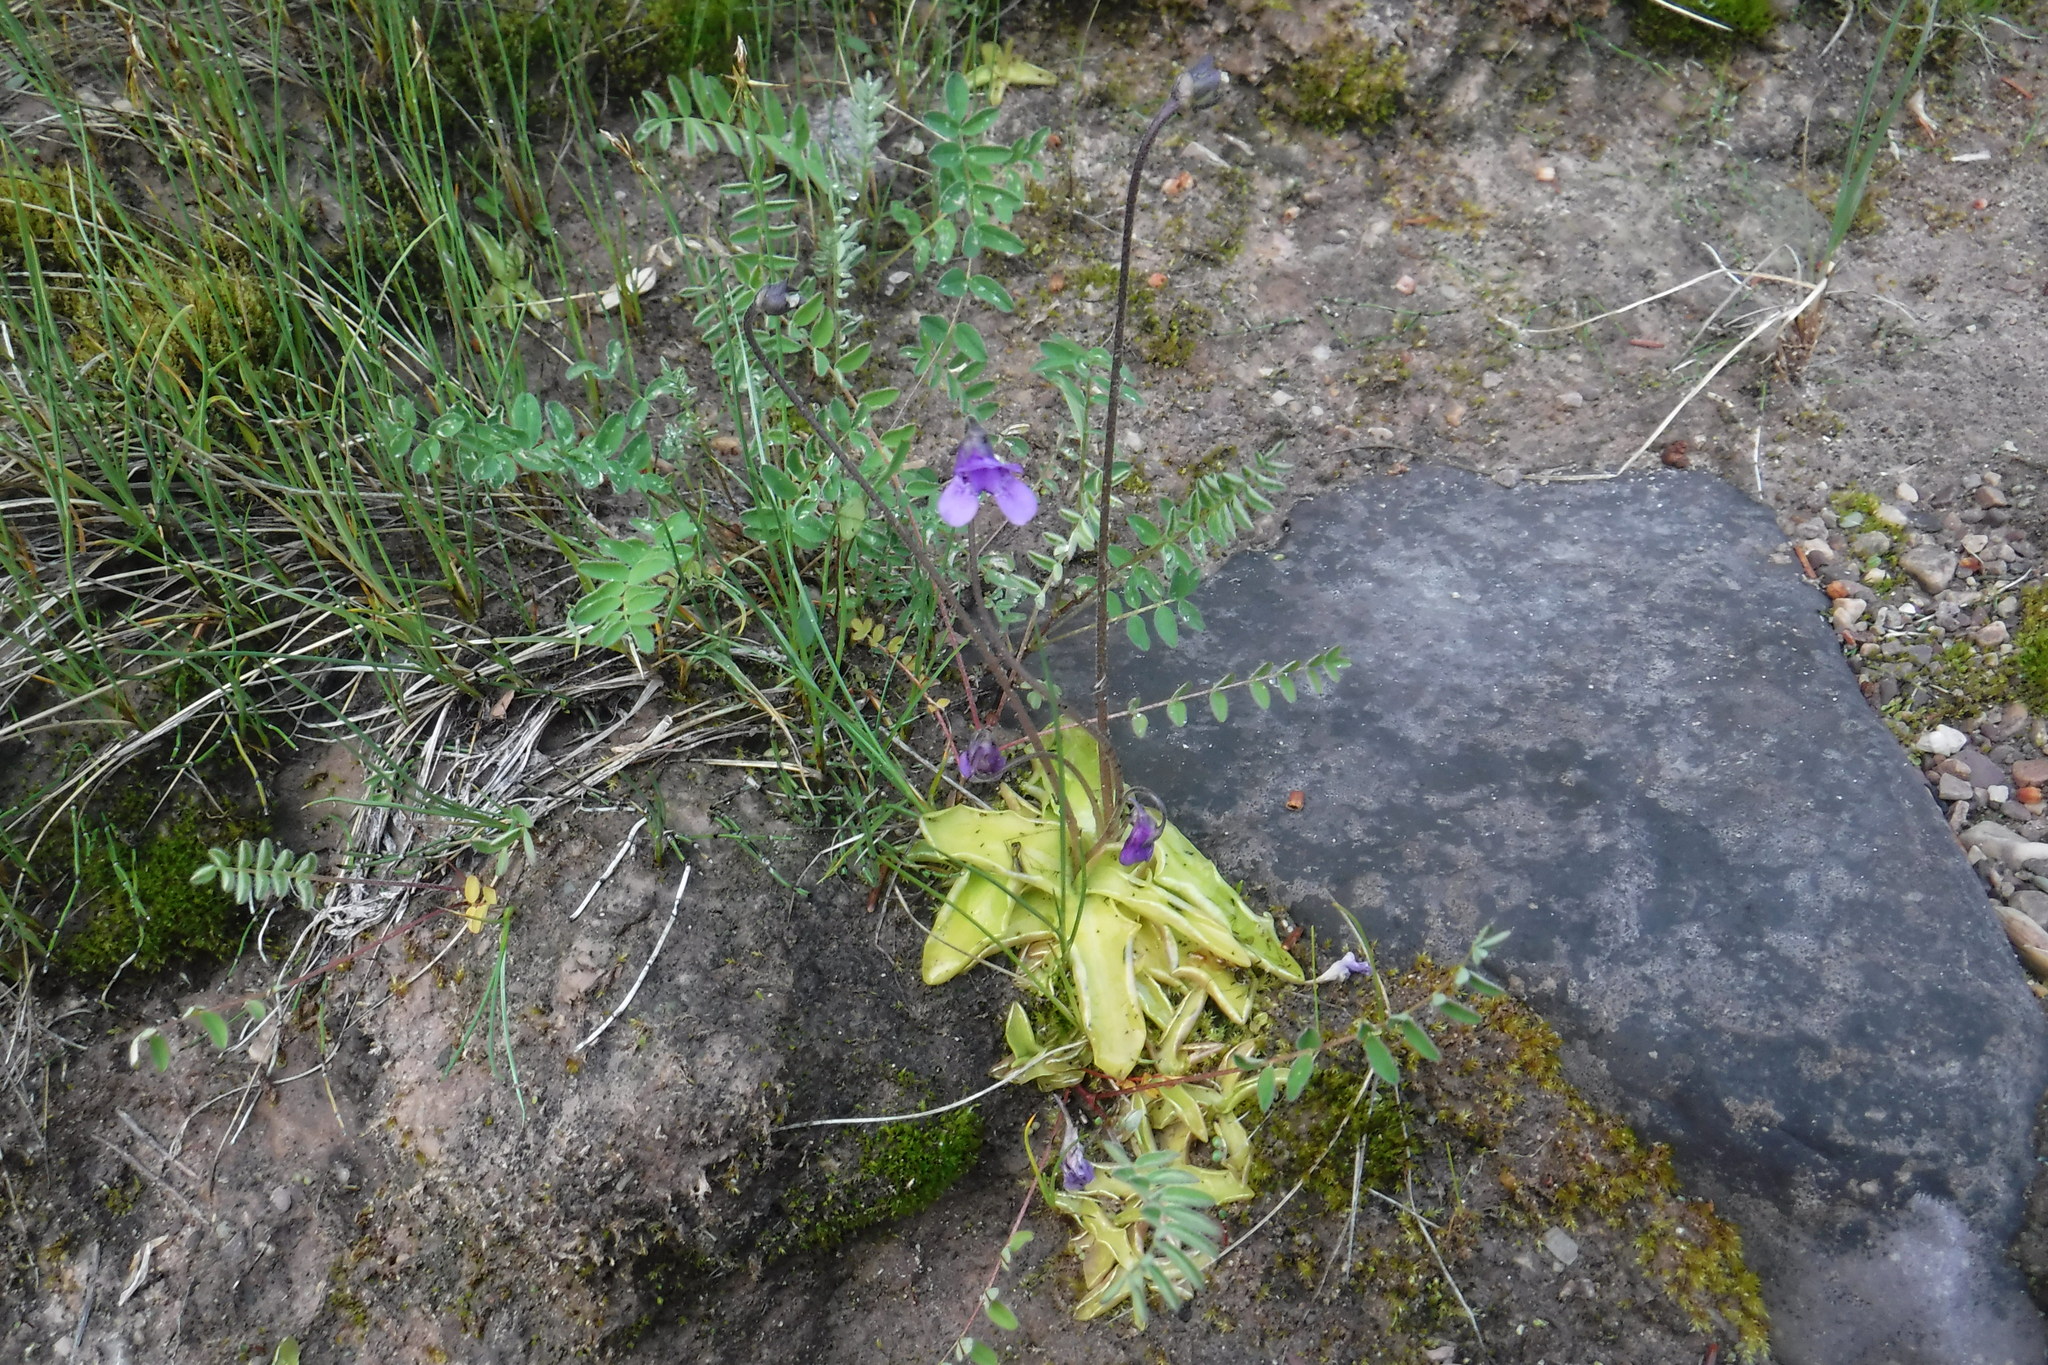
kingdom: Plantae
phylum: Tracheophyta
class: Magnoliopsida
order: Lamiales
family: Lentibulariaceae
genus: Pinguicula
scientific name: Pinguicula vulgaris
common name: Common butterwort
